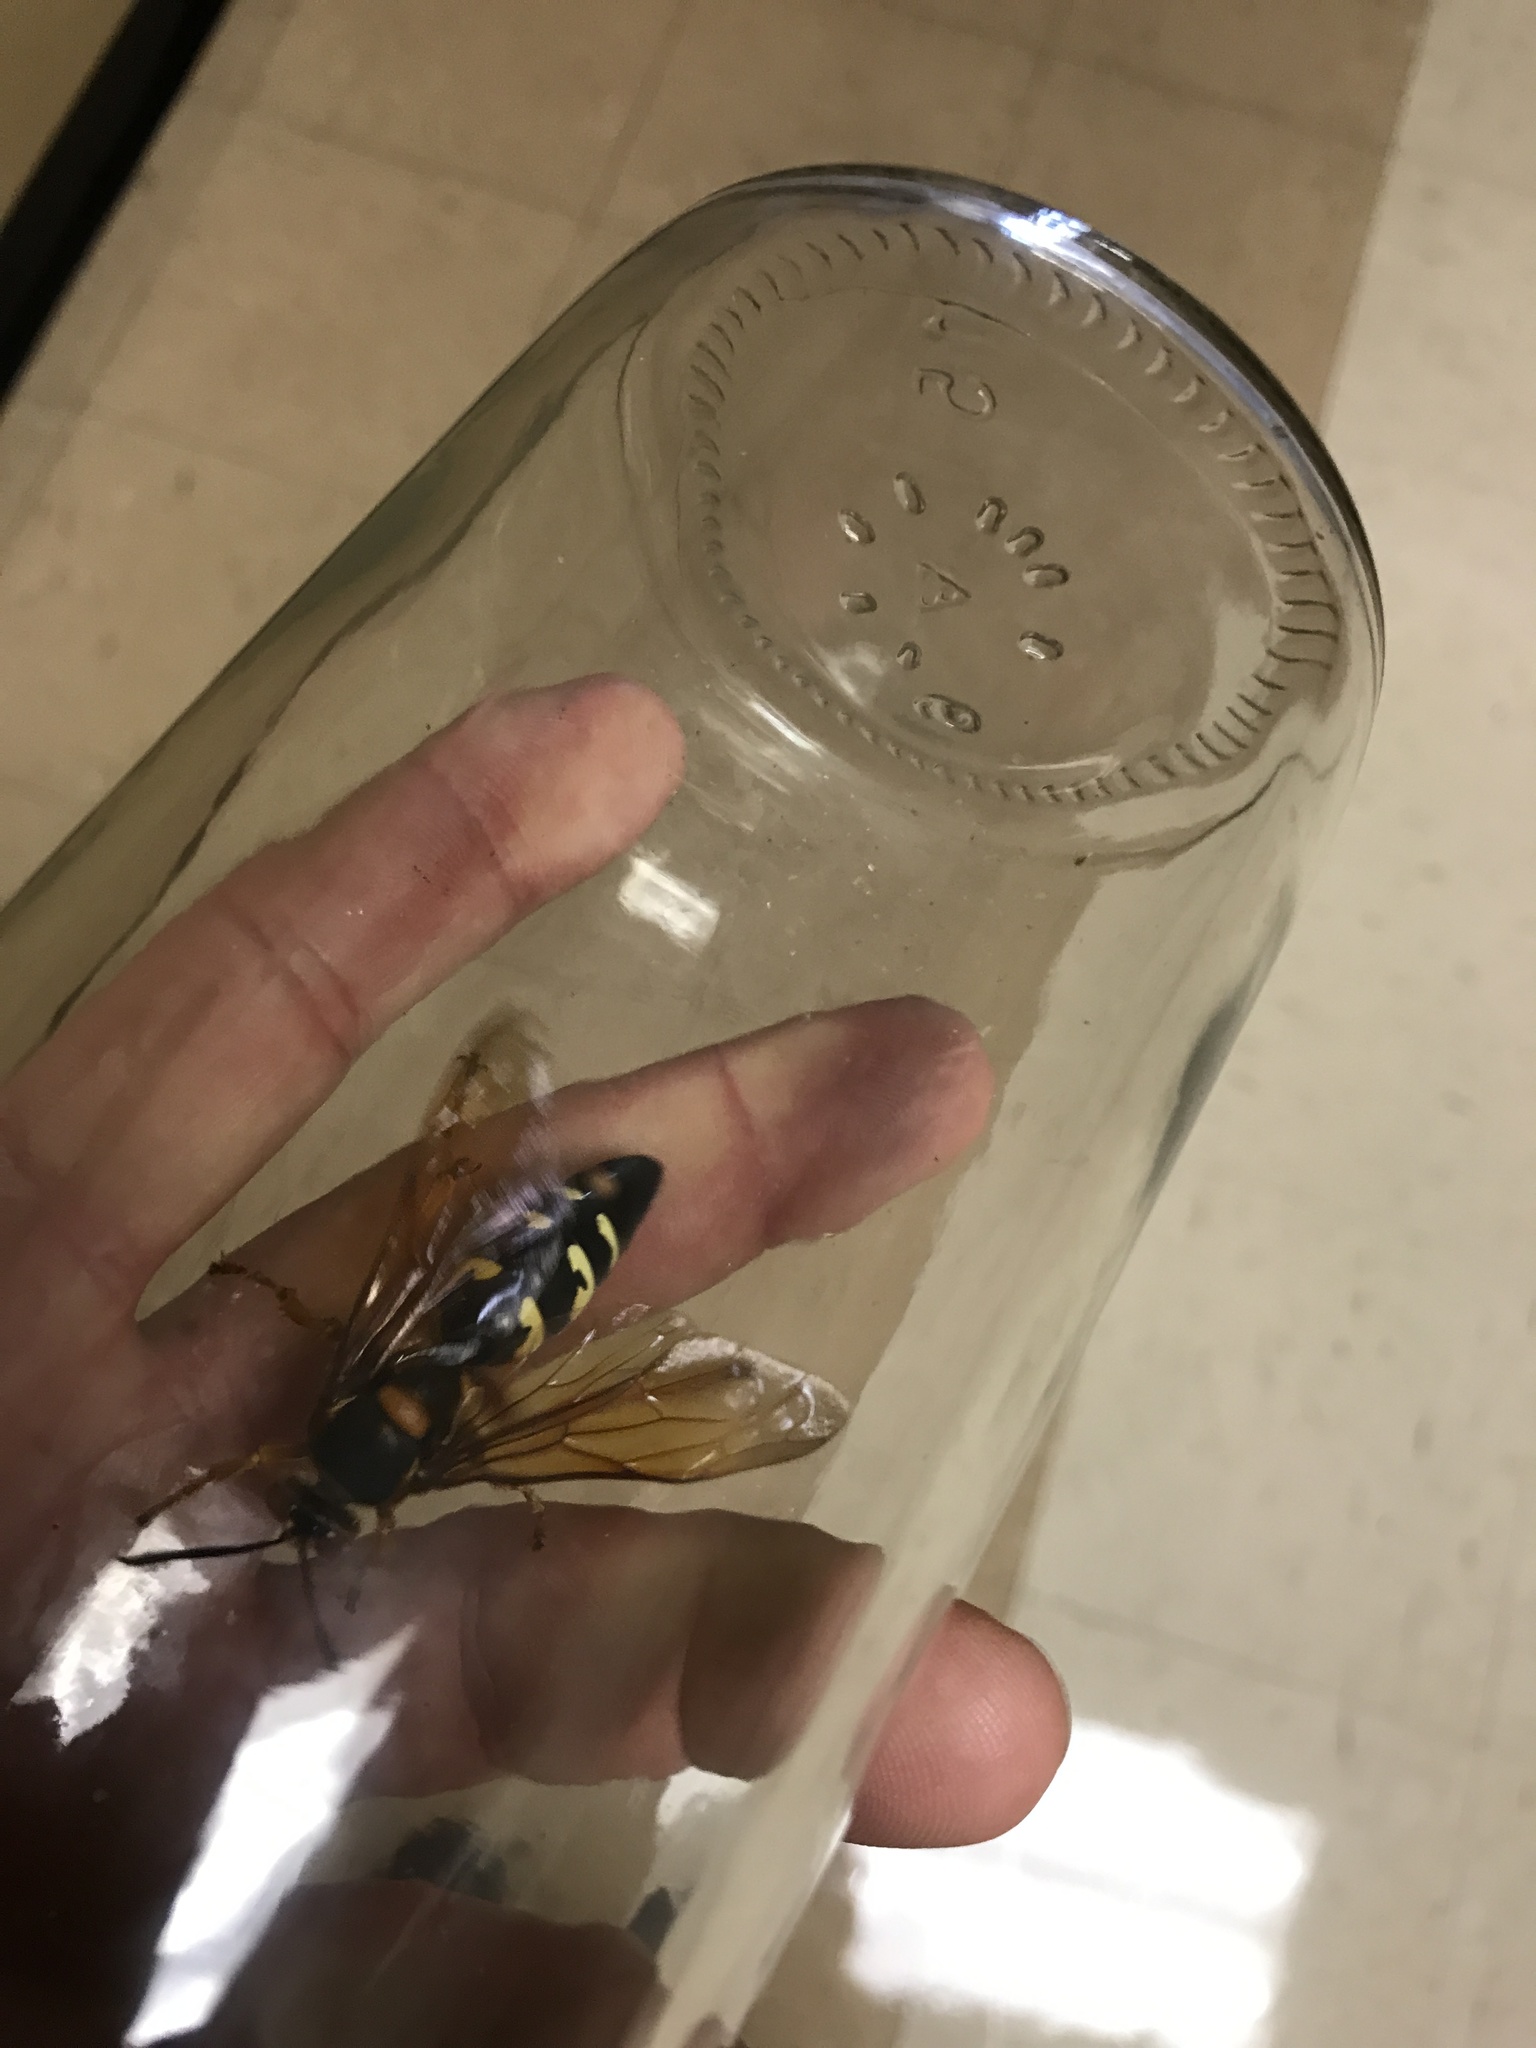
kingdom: Animalia
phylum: Arthropoda
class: Insecta
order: Hymenoptera
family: Crabronidae
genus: Sphecius
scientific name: Sphecius speciosus
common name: Cicada killer
